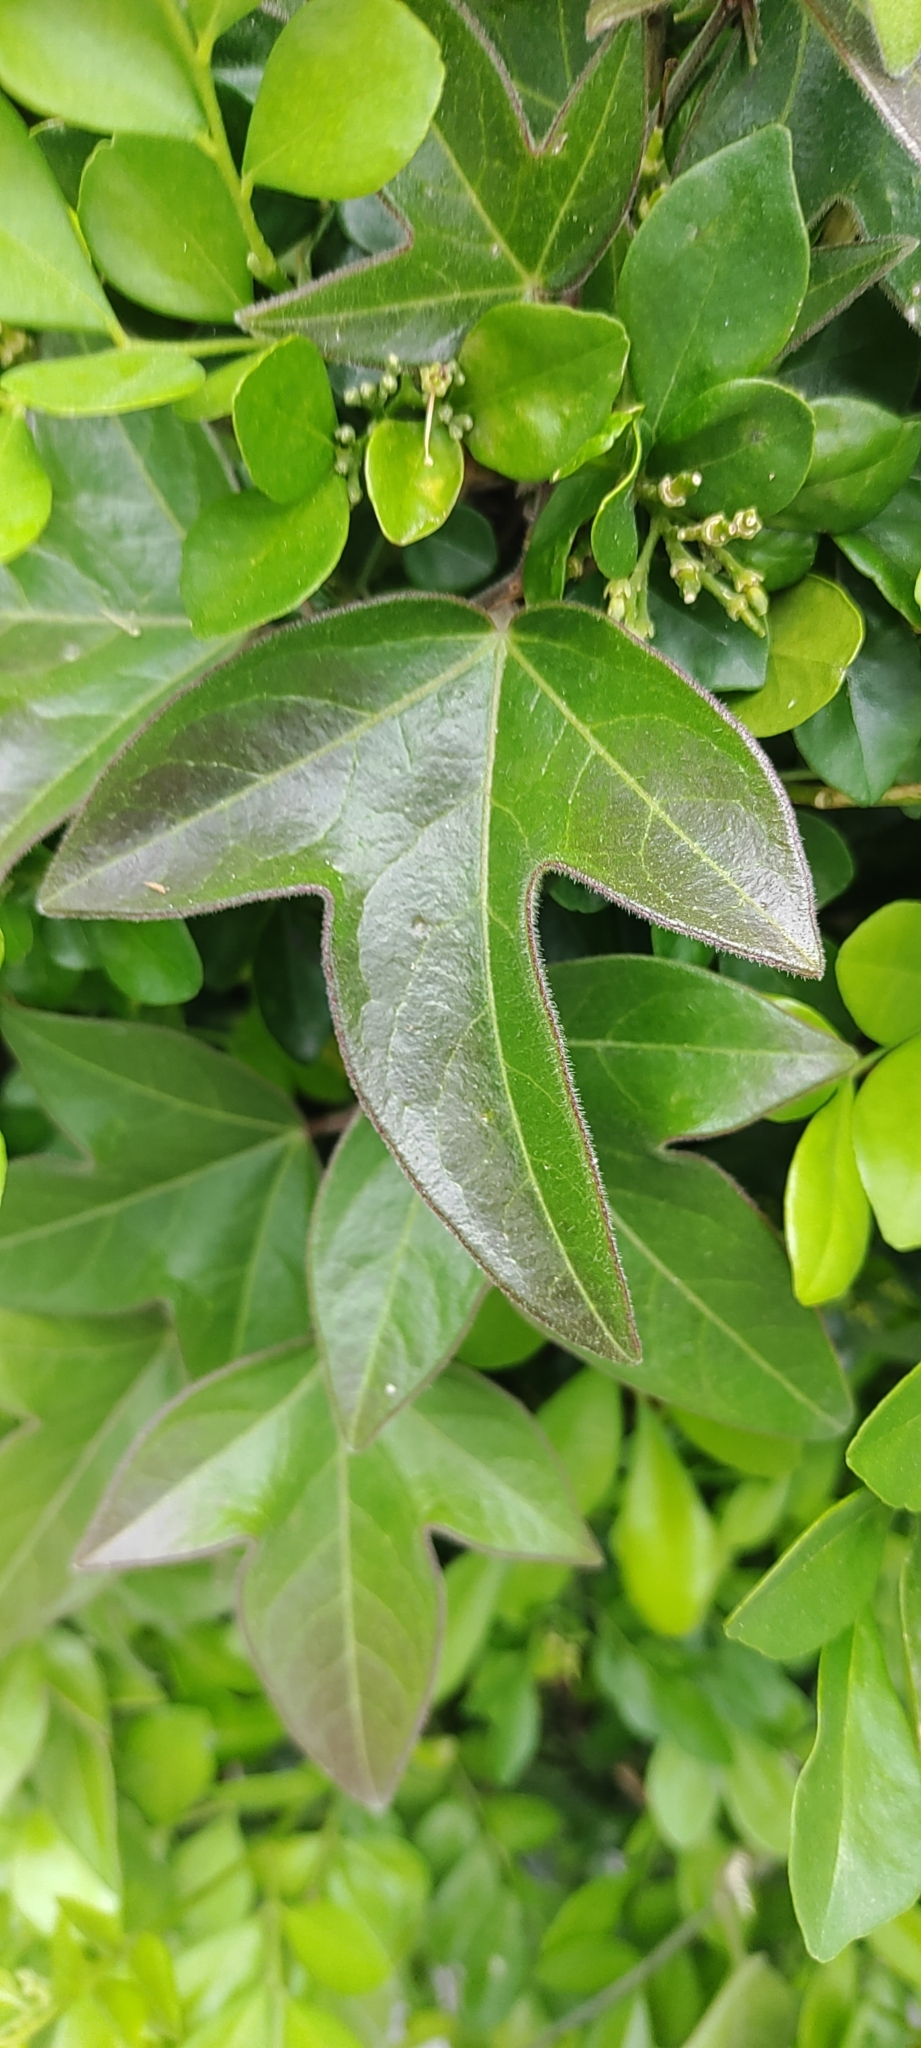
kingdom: Plantae
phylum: Tracheophyta
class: Magnoliopsida
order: Malpighiales
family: Passifloraceae
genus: Passiflora
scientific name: Passiflora suberosa
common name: Wild passionfruit
